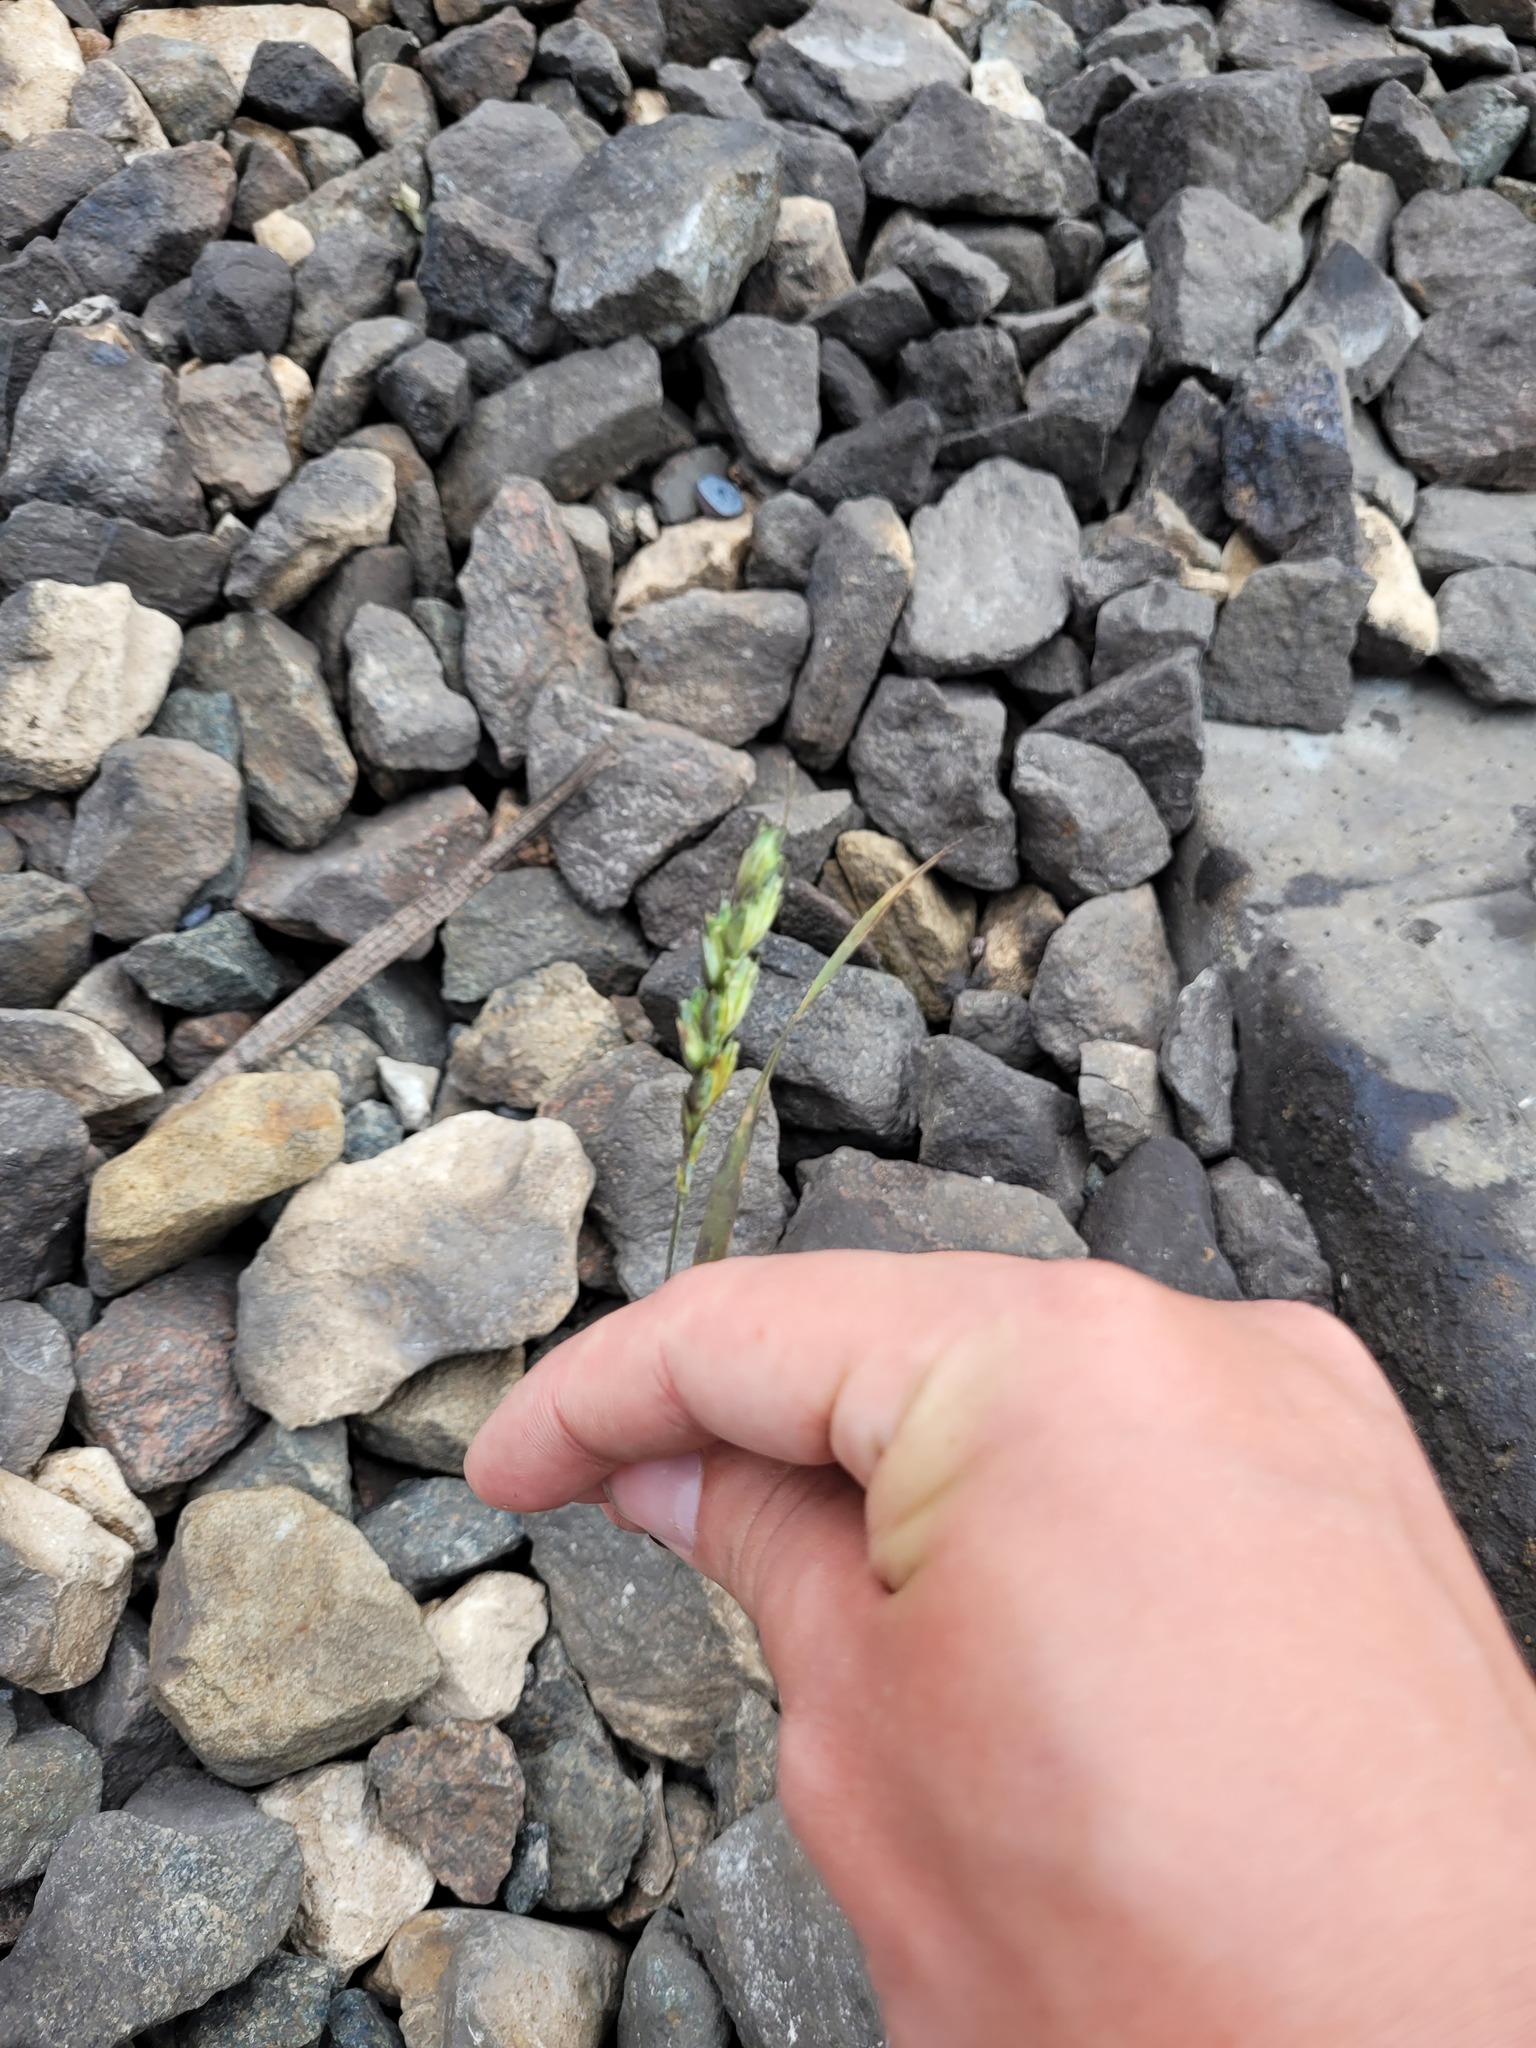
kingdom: Plantae
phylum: Tracheophyta
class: Liliopsida
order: Poales
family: Poaceae
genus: Triticum
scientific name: Triticum aestivum
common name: Common wheat
